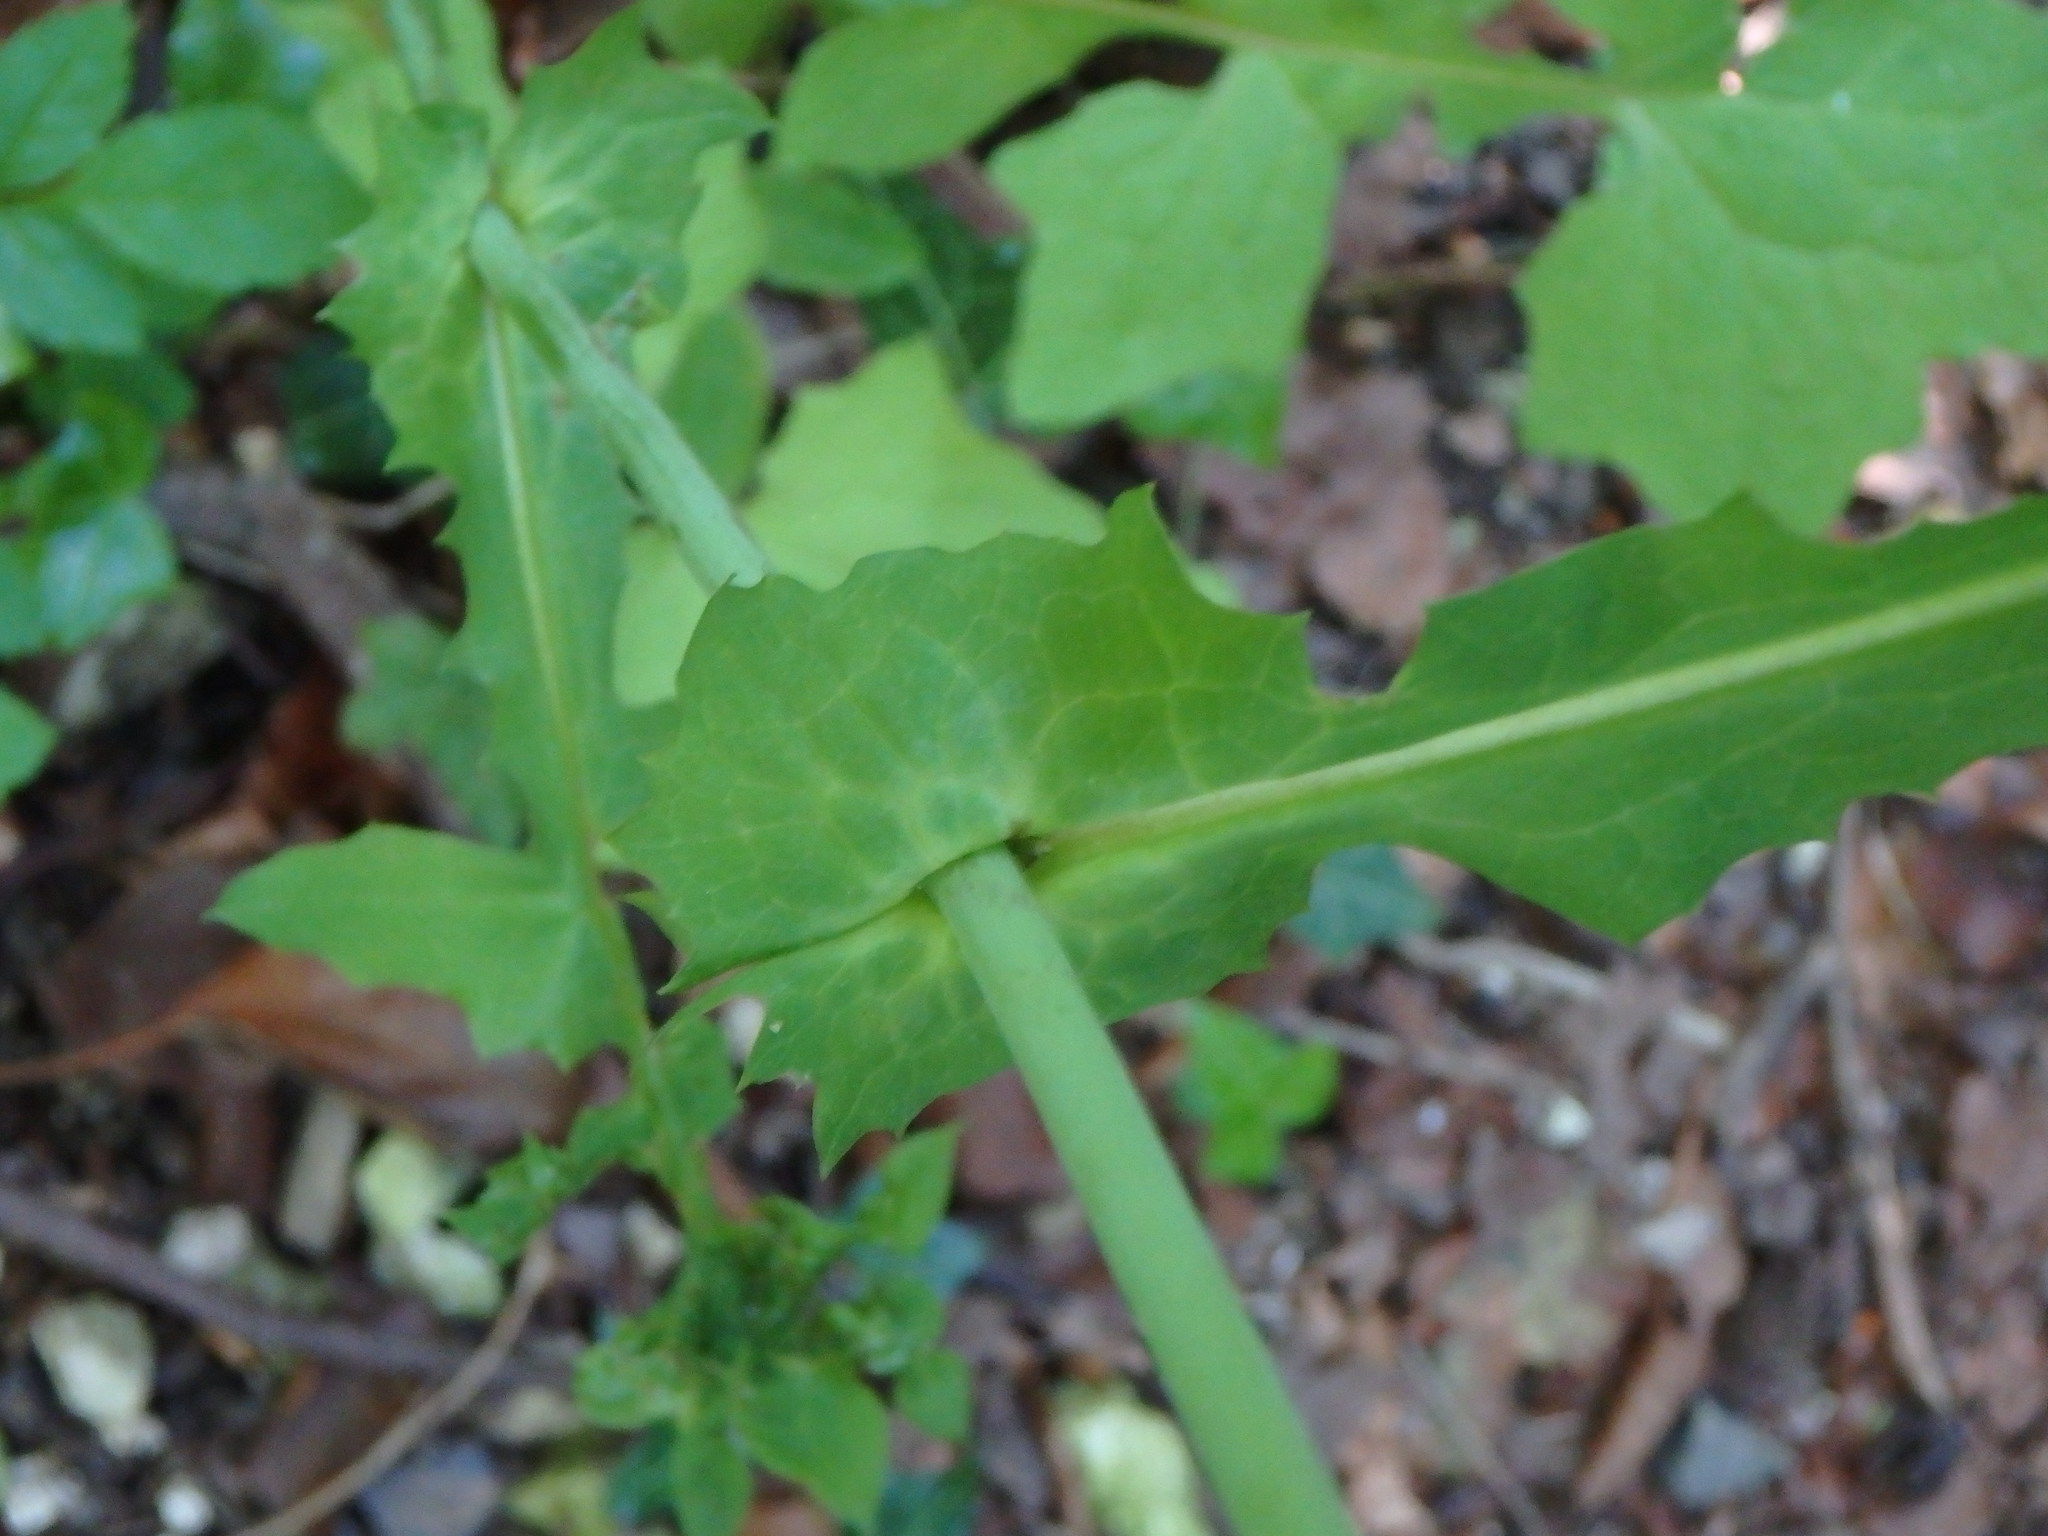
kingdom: Plantae
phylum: Tracheophyta
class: Magnoliopsida
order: Asterales
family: Asteraceae
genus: Mycelis
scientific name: Mycelis muralis
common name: Wall lettuce
